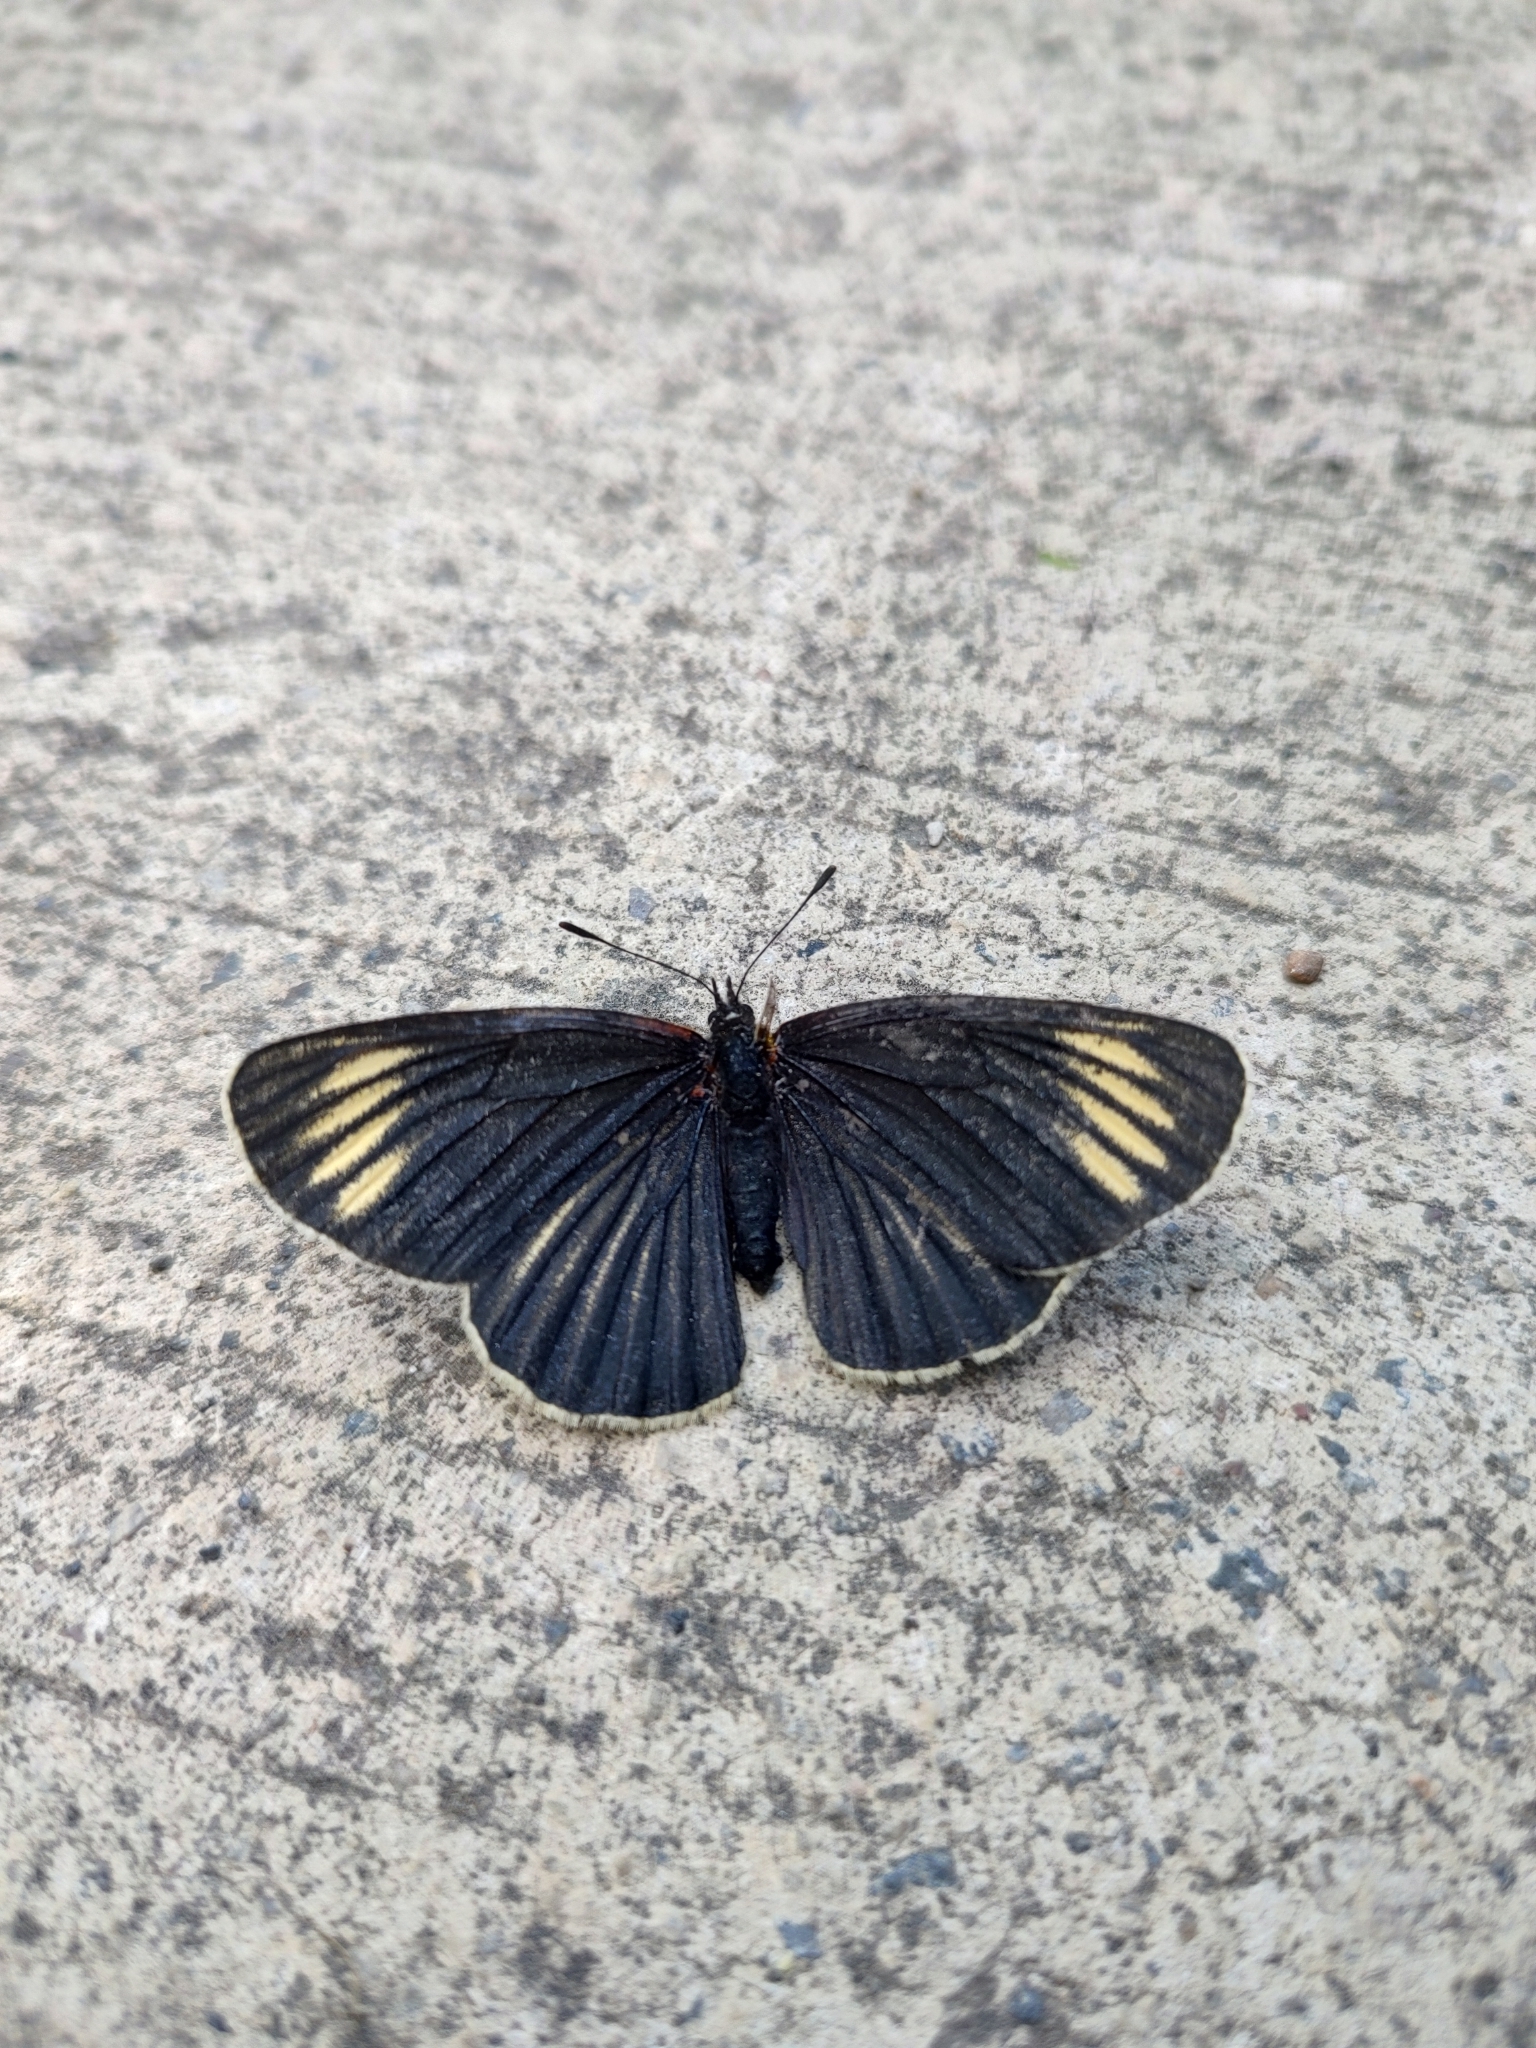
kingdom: Animalia
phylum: Arthropoda
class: Insecta
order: Lepidoptera
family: Nymphalidae
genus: Chlosyne
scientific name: Chlosyne ehrenbergii
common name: White-rayed patch
